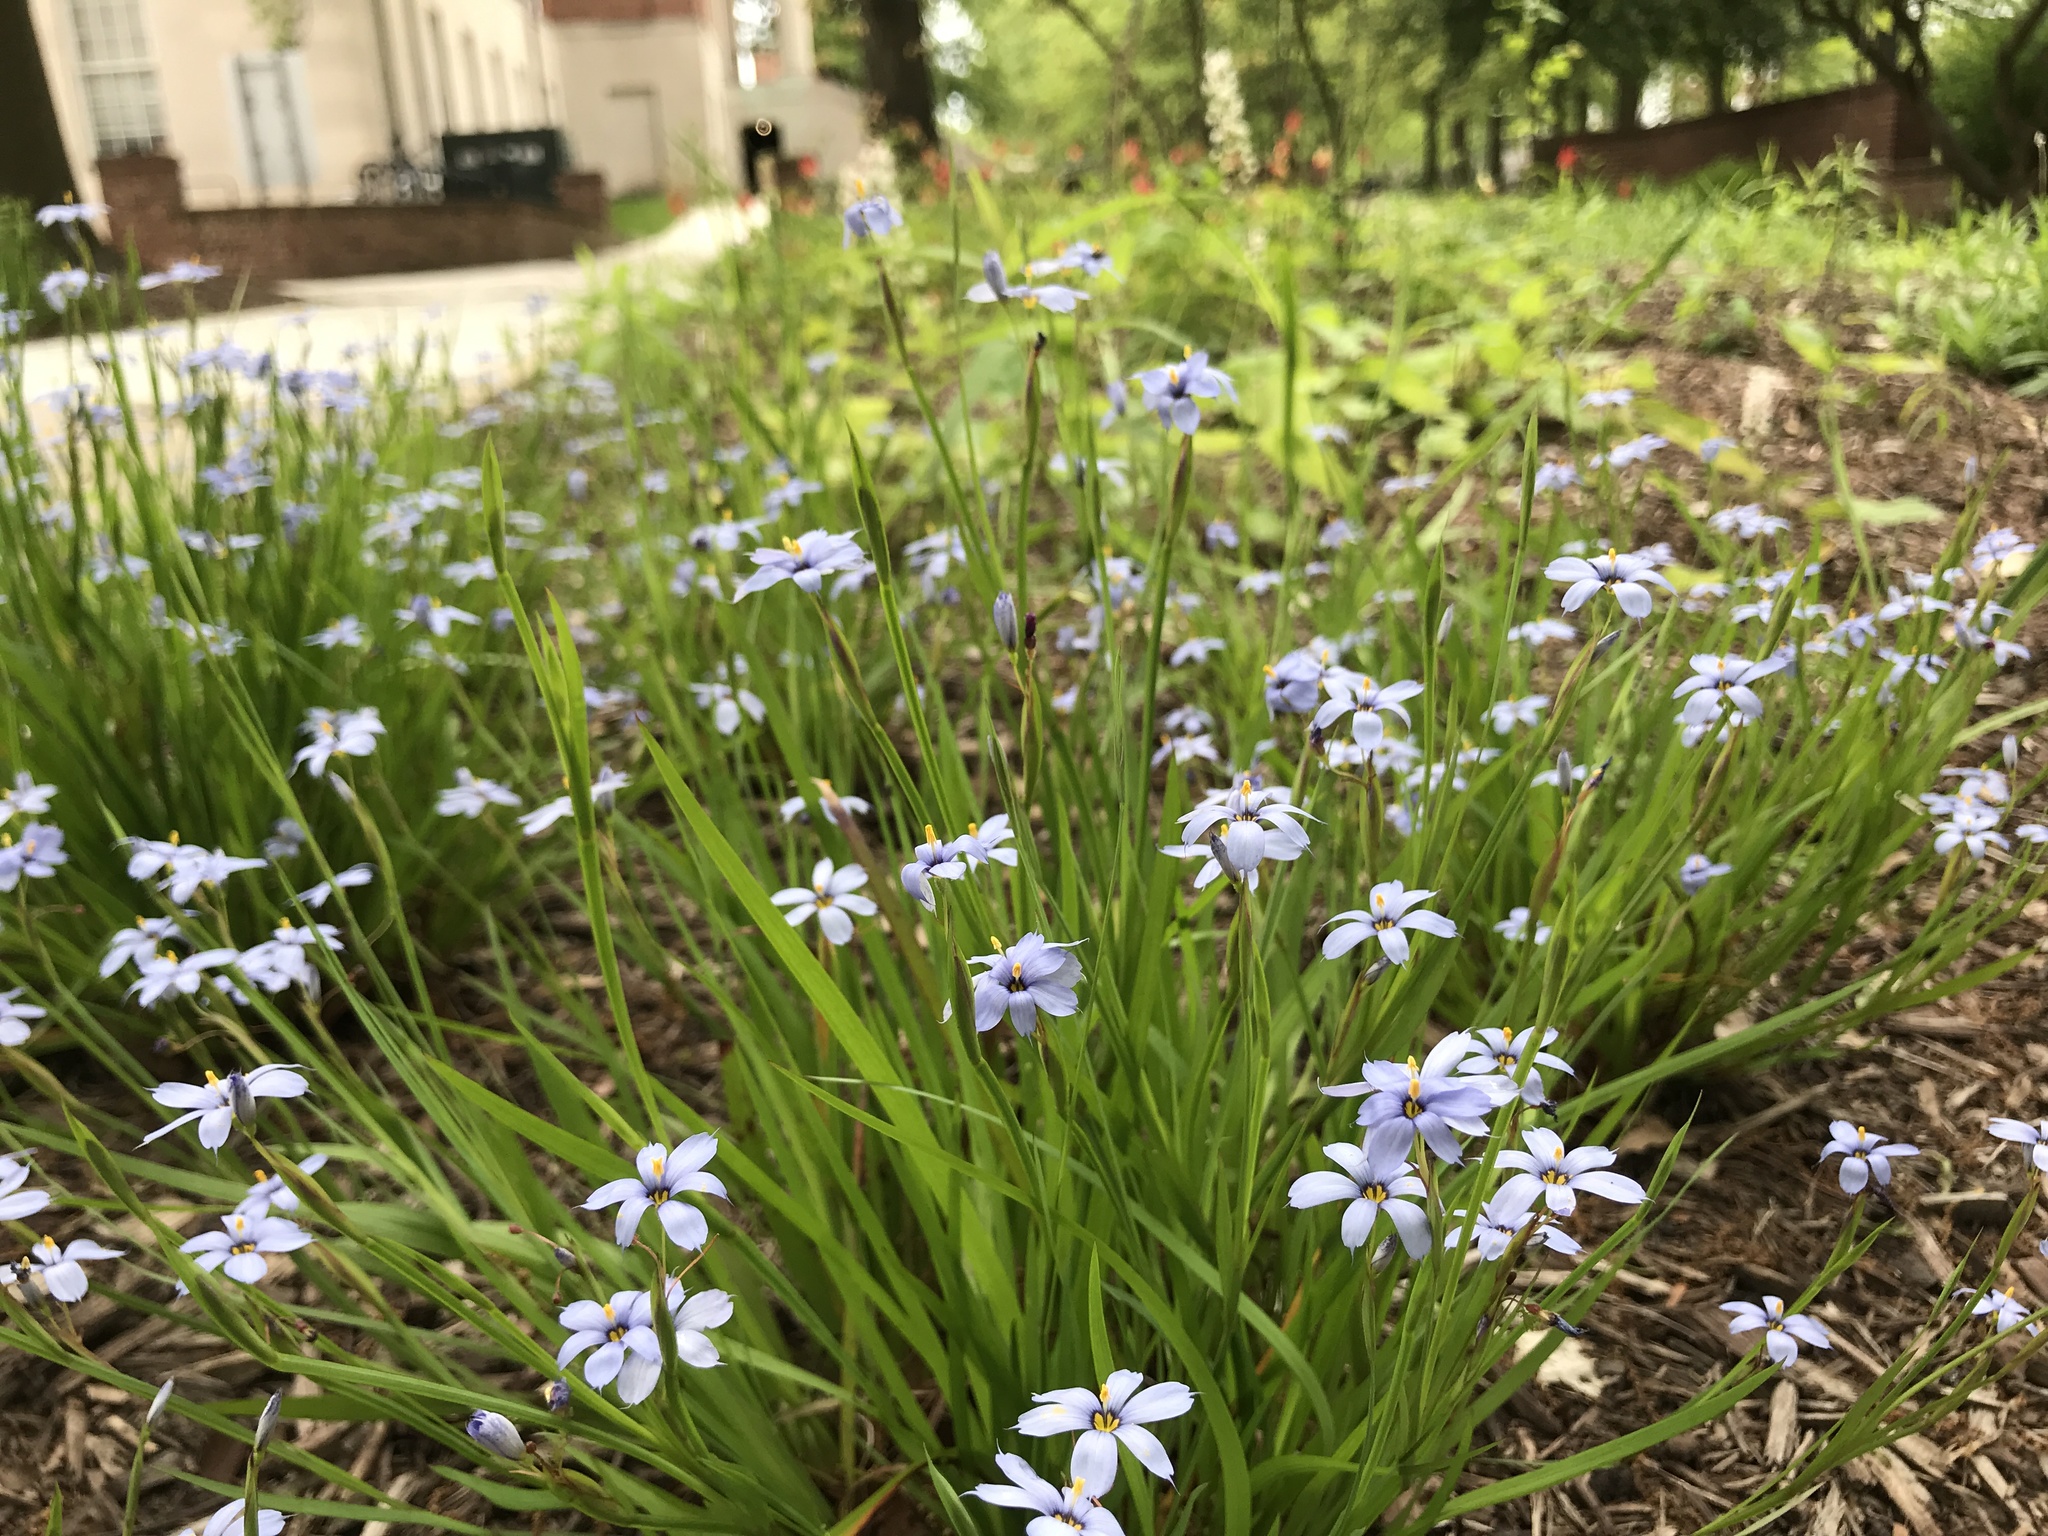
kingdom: Plantae
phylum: Tracheophyta
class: Liliopsida
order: Asparagales
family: Iridaceae
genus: Sisyrinchium
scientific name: Sisyrinchium angustifolium
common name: Narrow-leaf blue-eyed-grass
